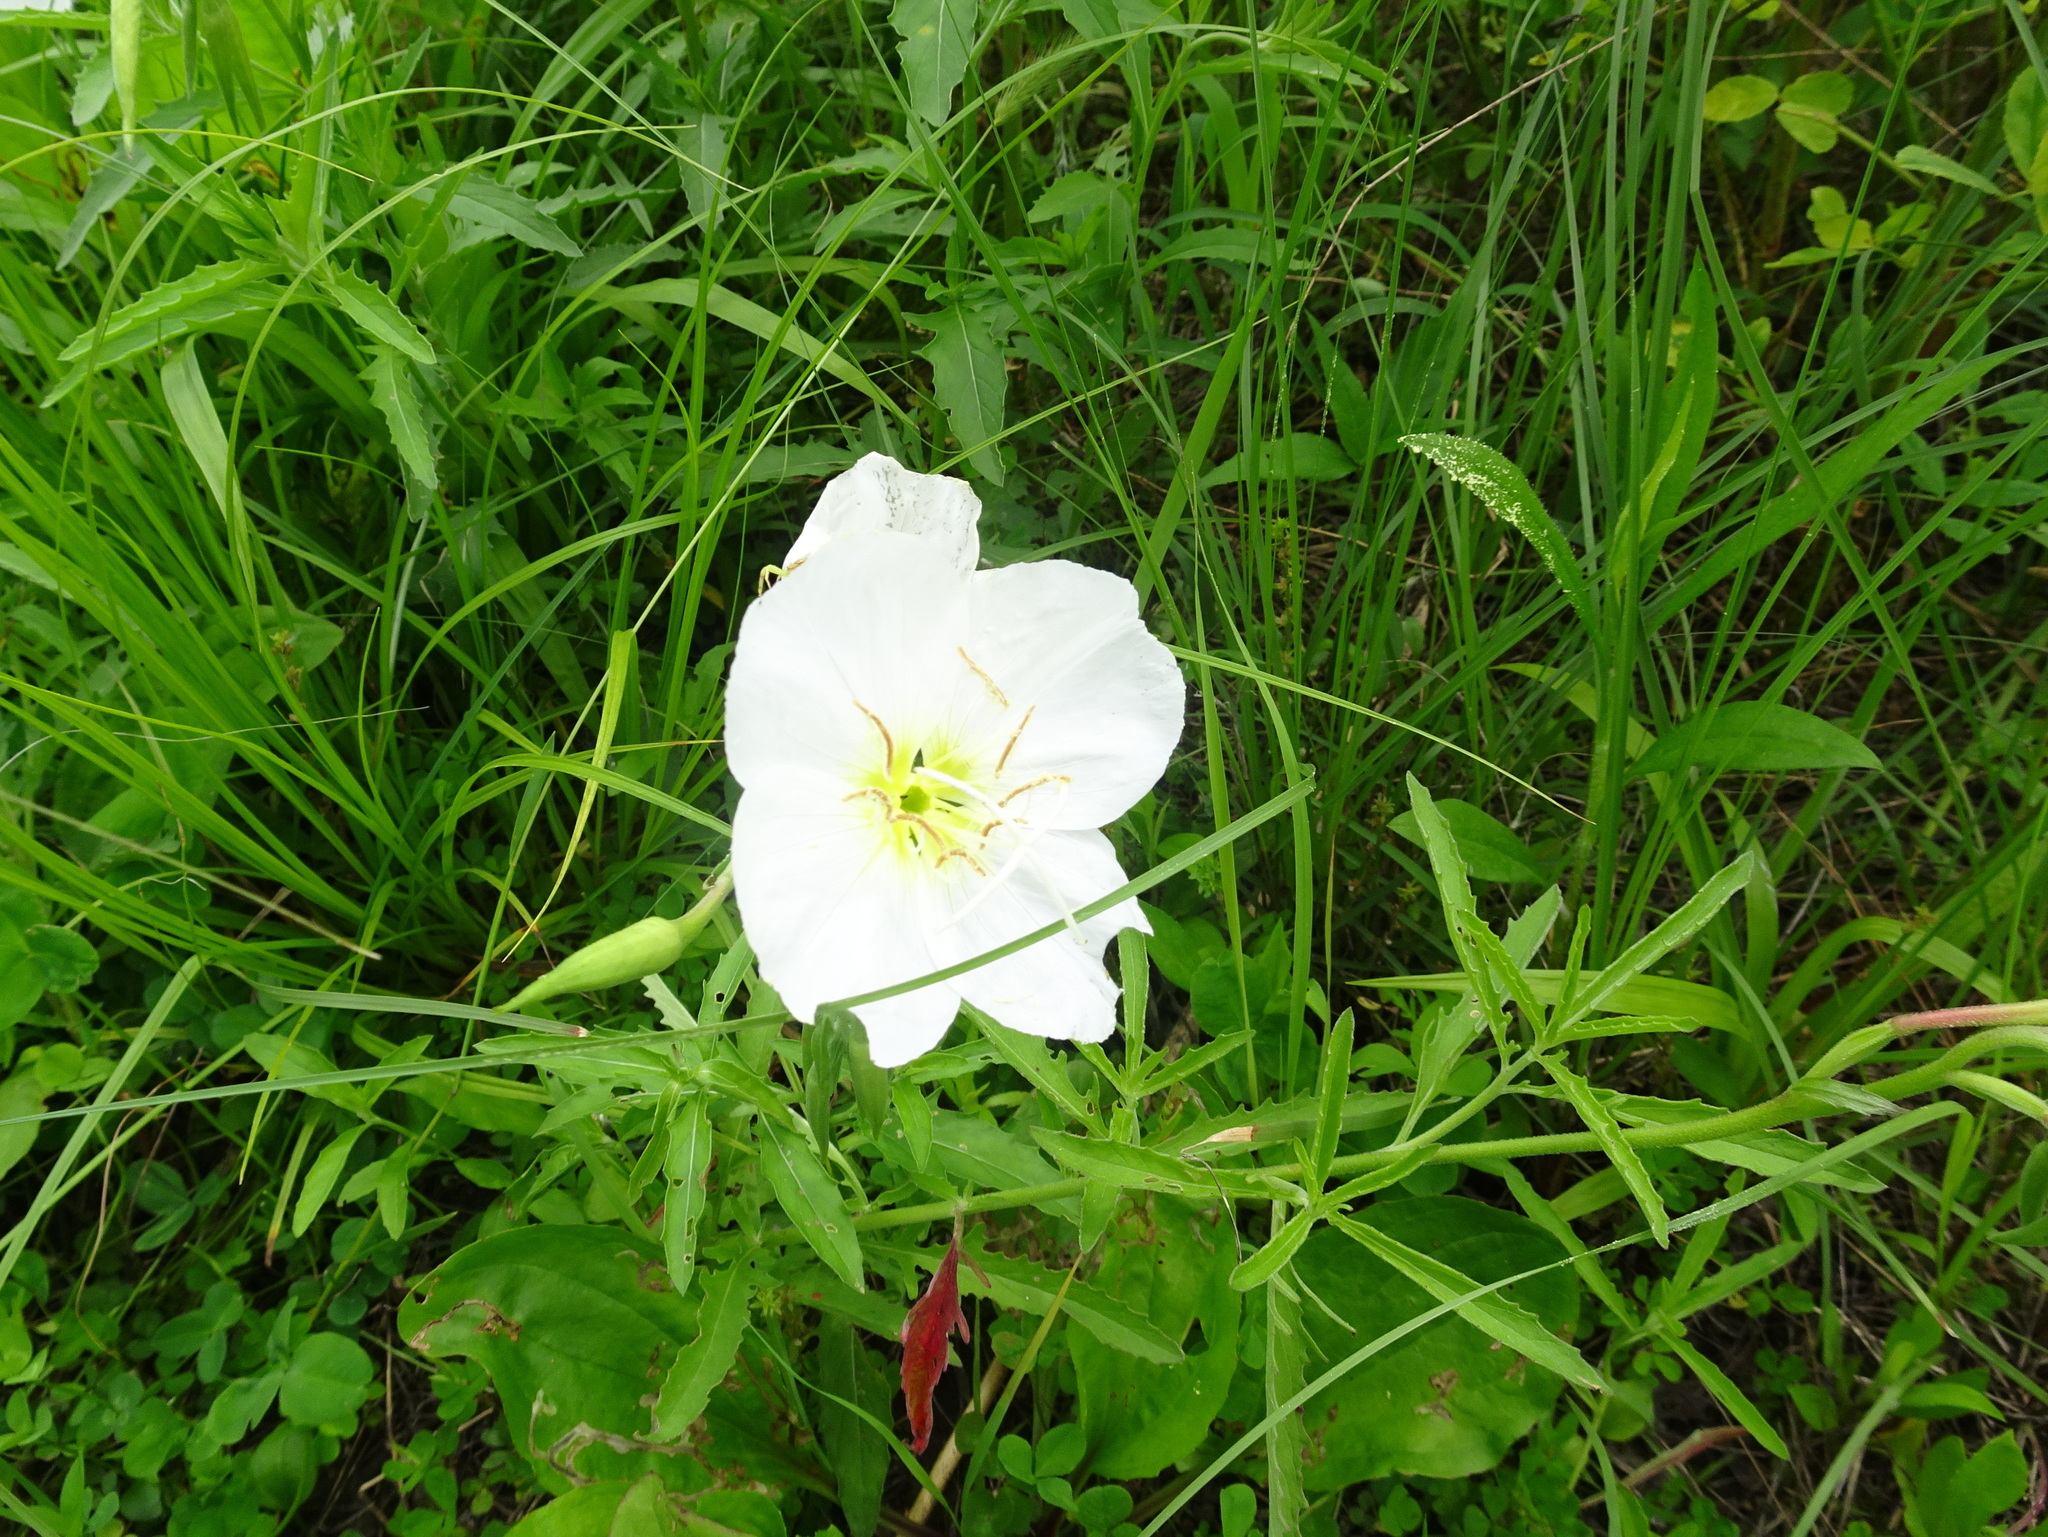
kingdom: Plantae
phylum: Tracheophyta
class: Magnoliopsida
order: Myrtales
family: Onagraceae
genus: Oenothera
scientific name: Oenothera speciosa
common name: White evening-primrose
